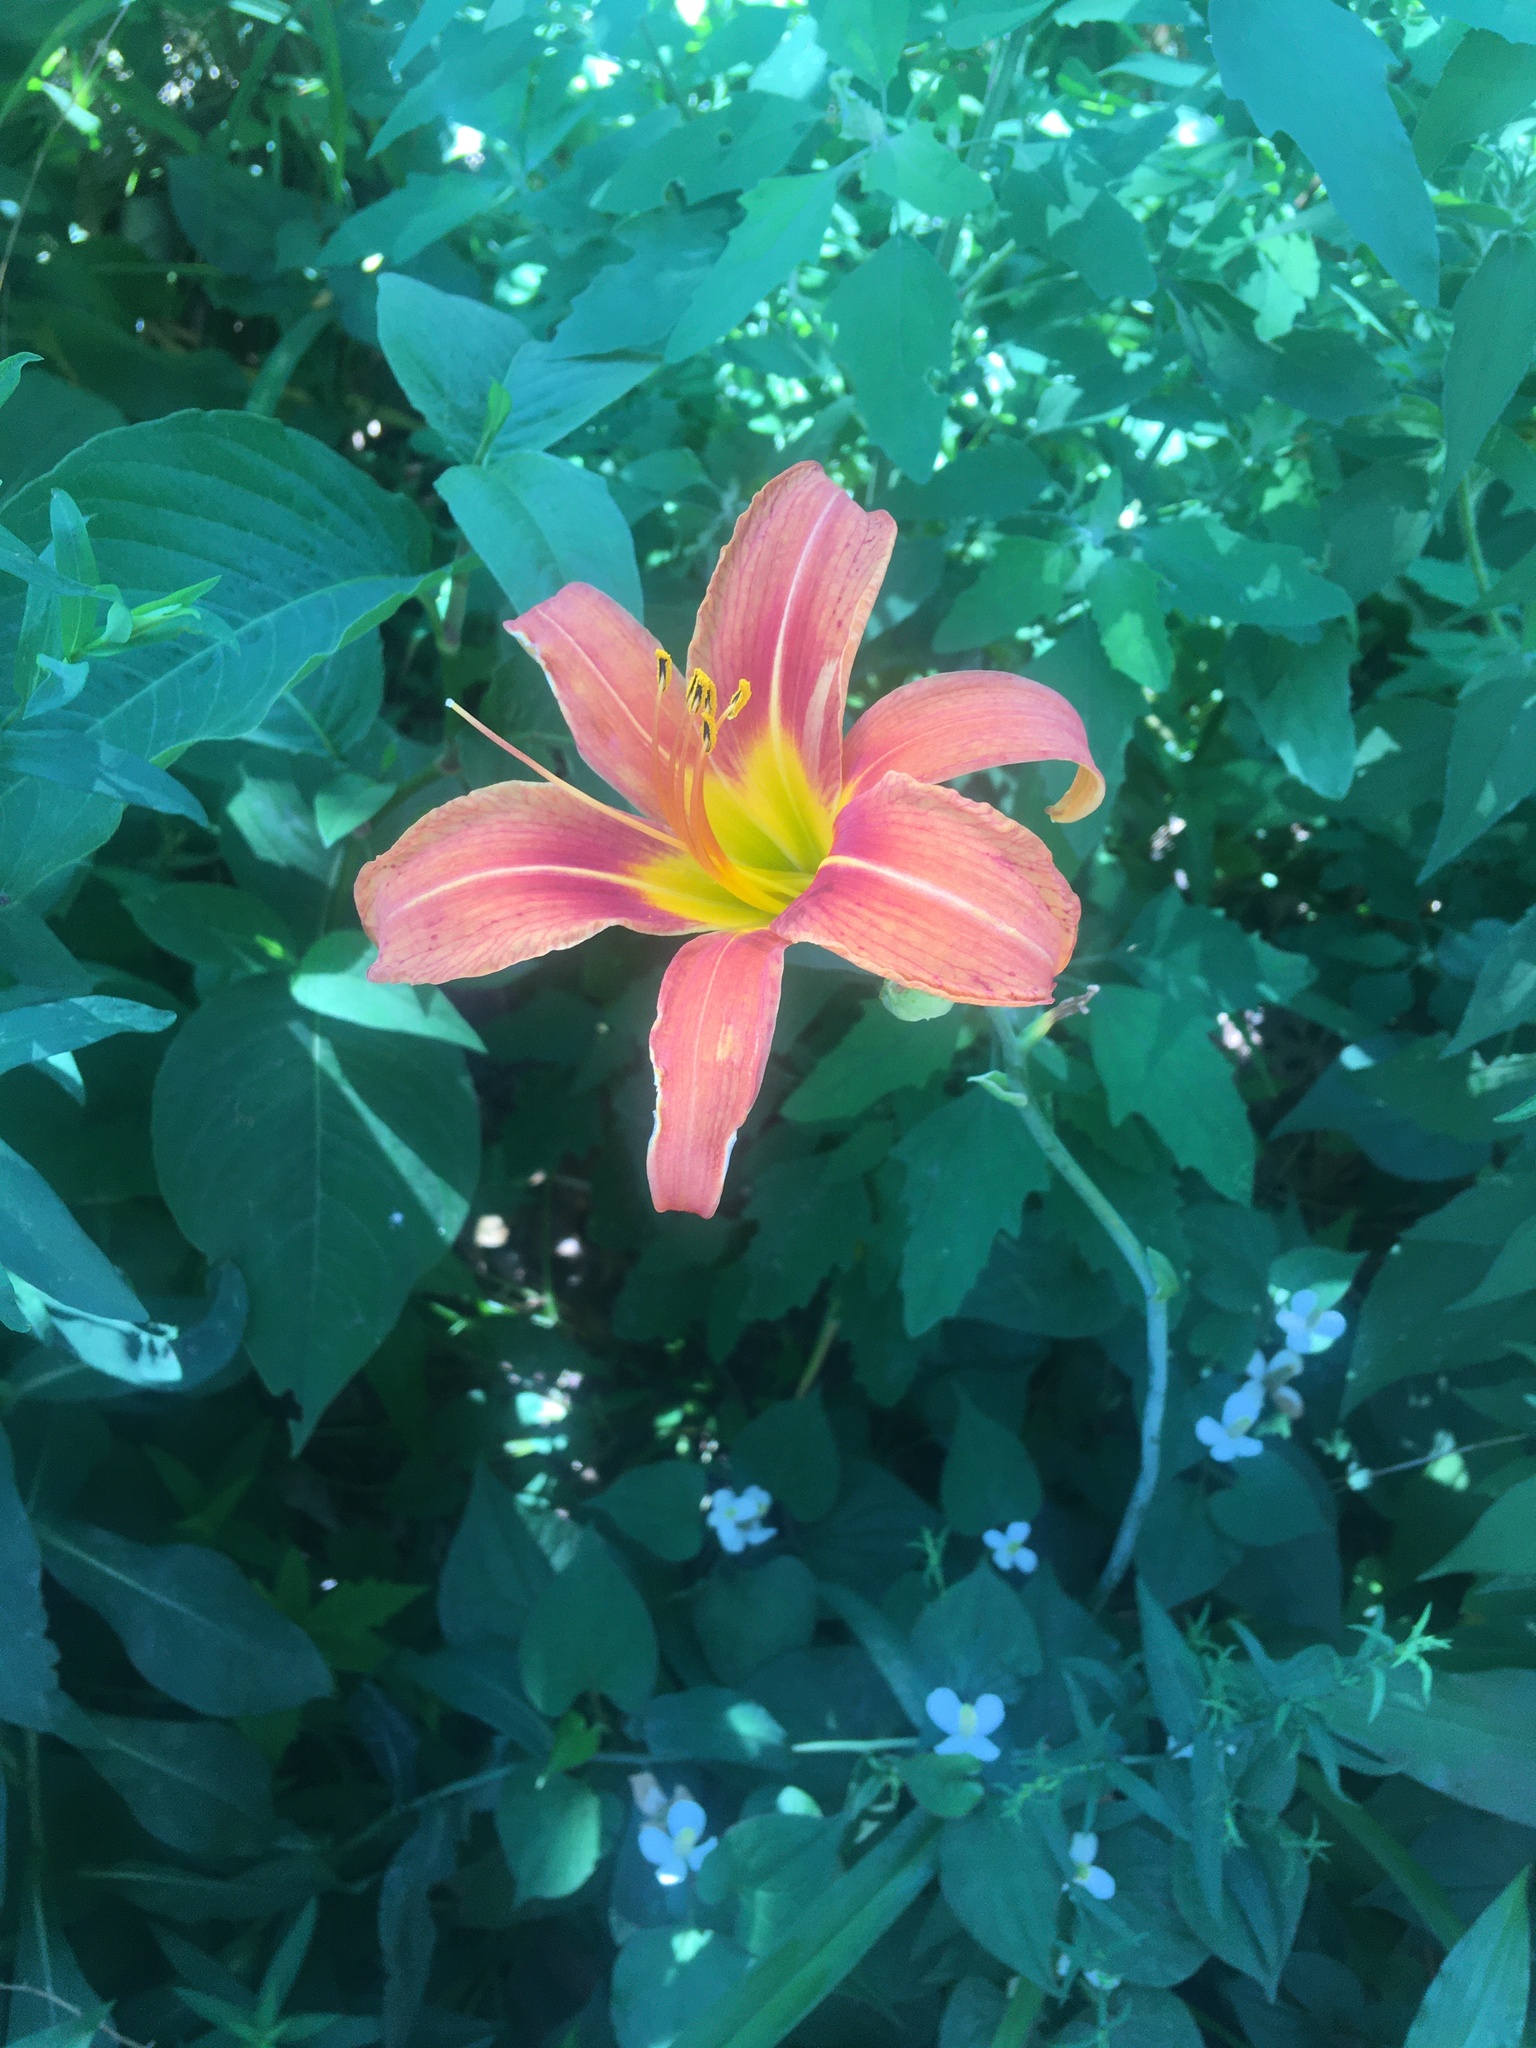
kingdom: Plantae
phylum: Tracheophyta
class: Liliopsida
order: Asparagales
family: Asphodelaceae
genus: Hemerocallis
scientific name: Hemerocallis fulva
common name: Orange day-lily
